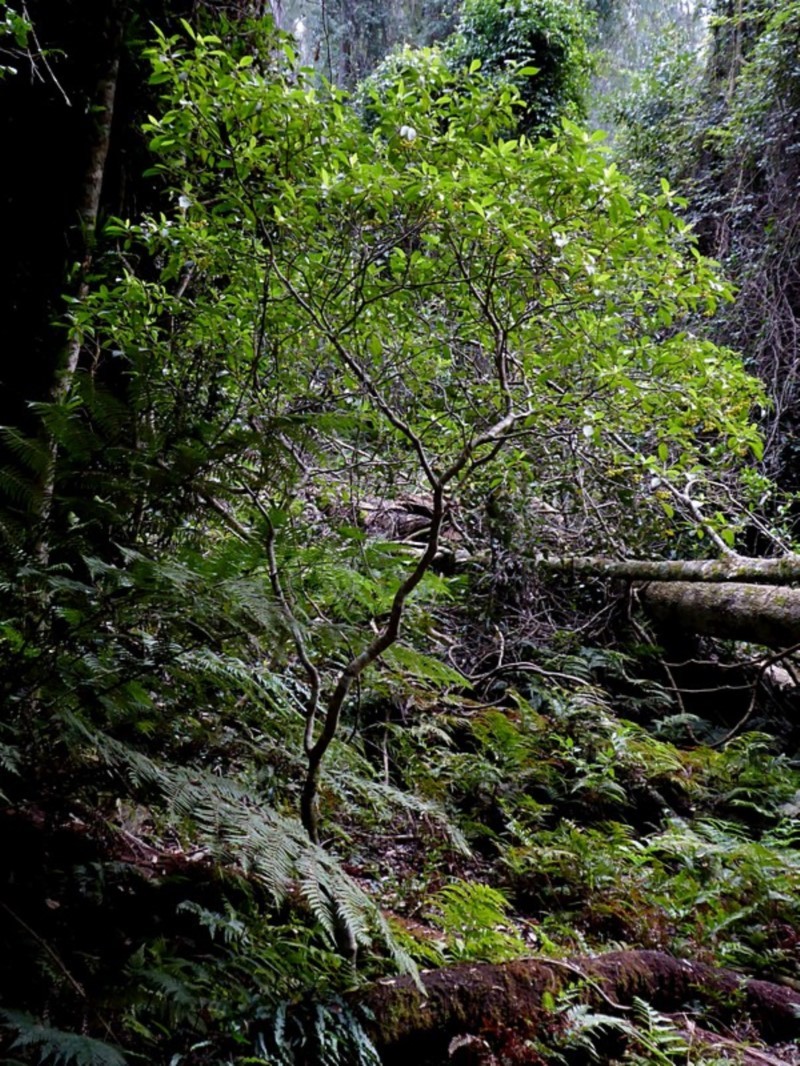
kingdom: Plantae
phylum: Tracheophyta
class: Magnoliopsida
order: Gentianales
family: Rubiaceae
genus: Psychotria
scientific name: Psychotria loniceroides
